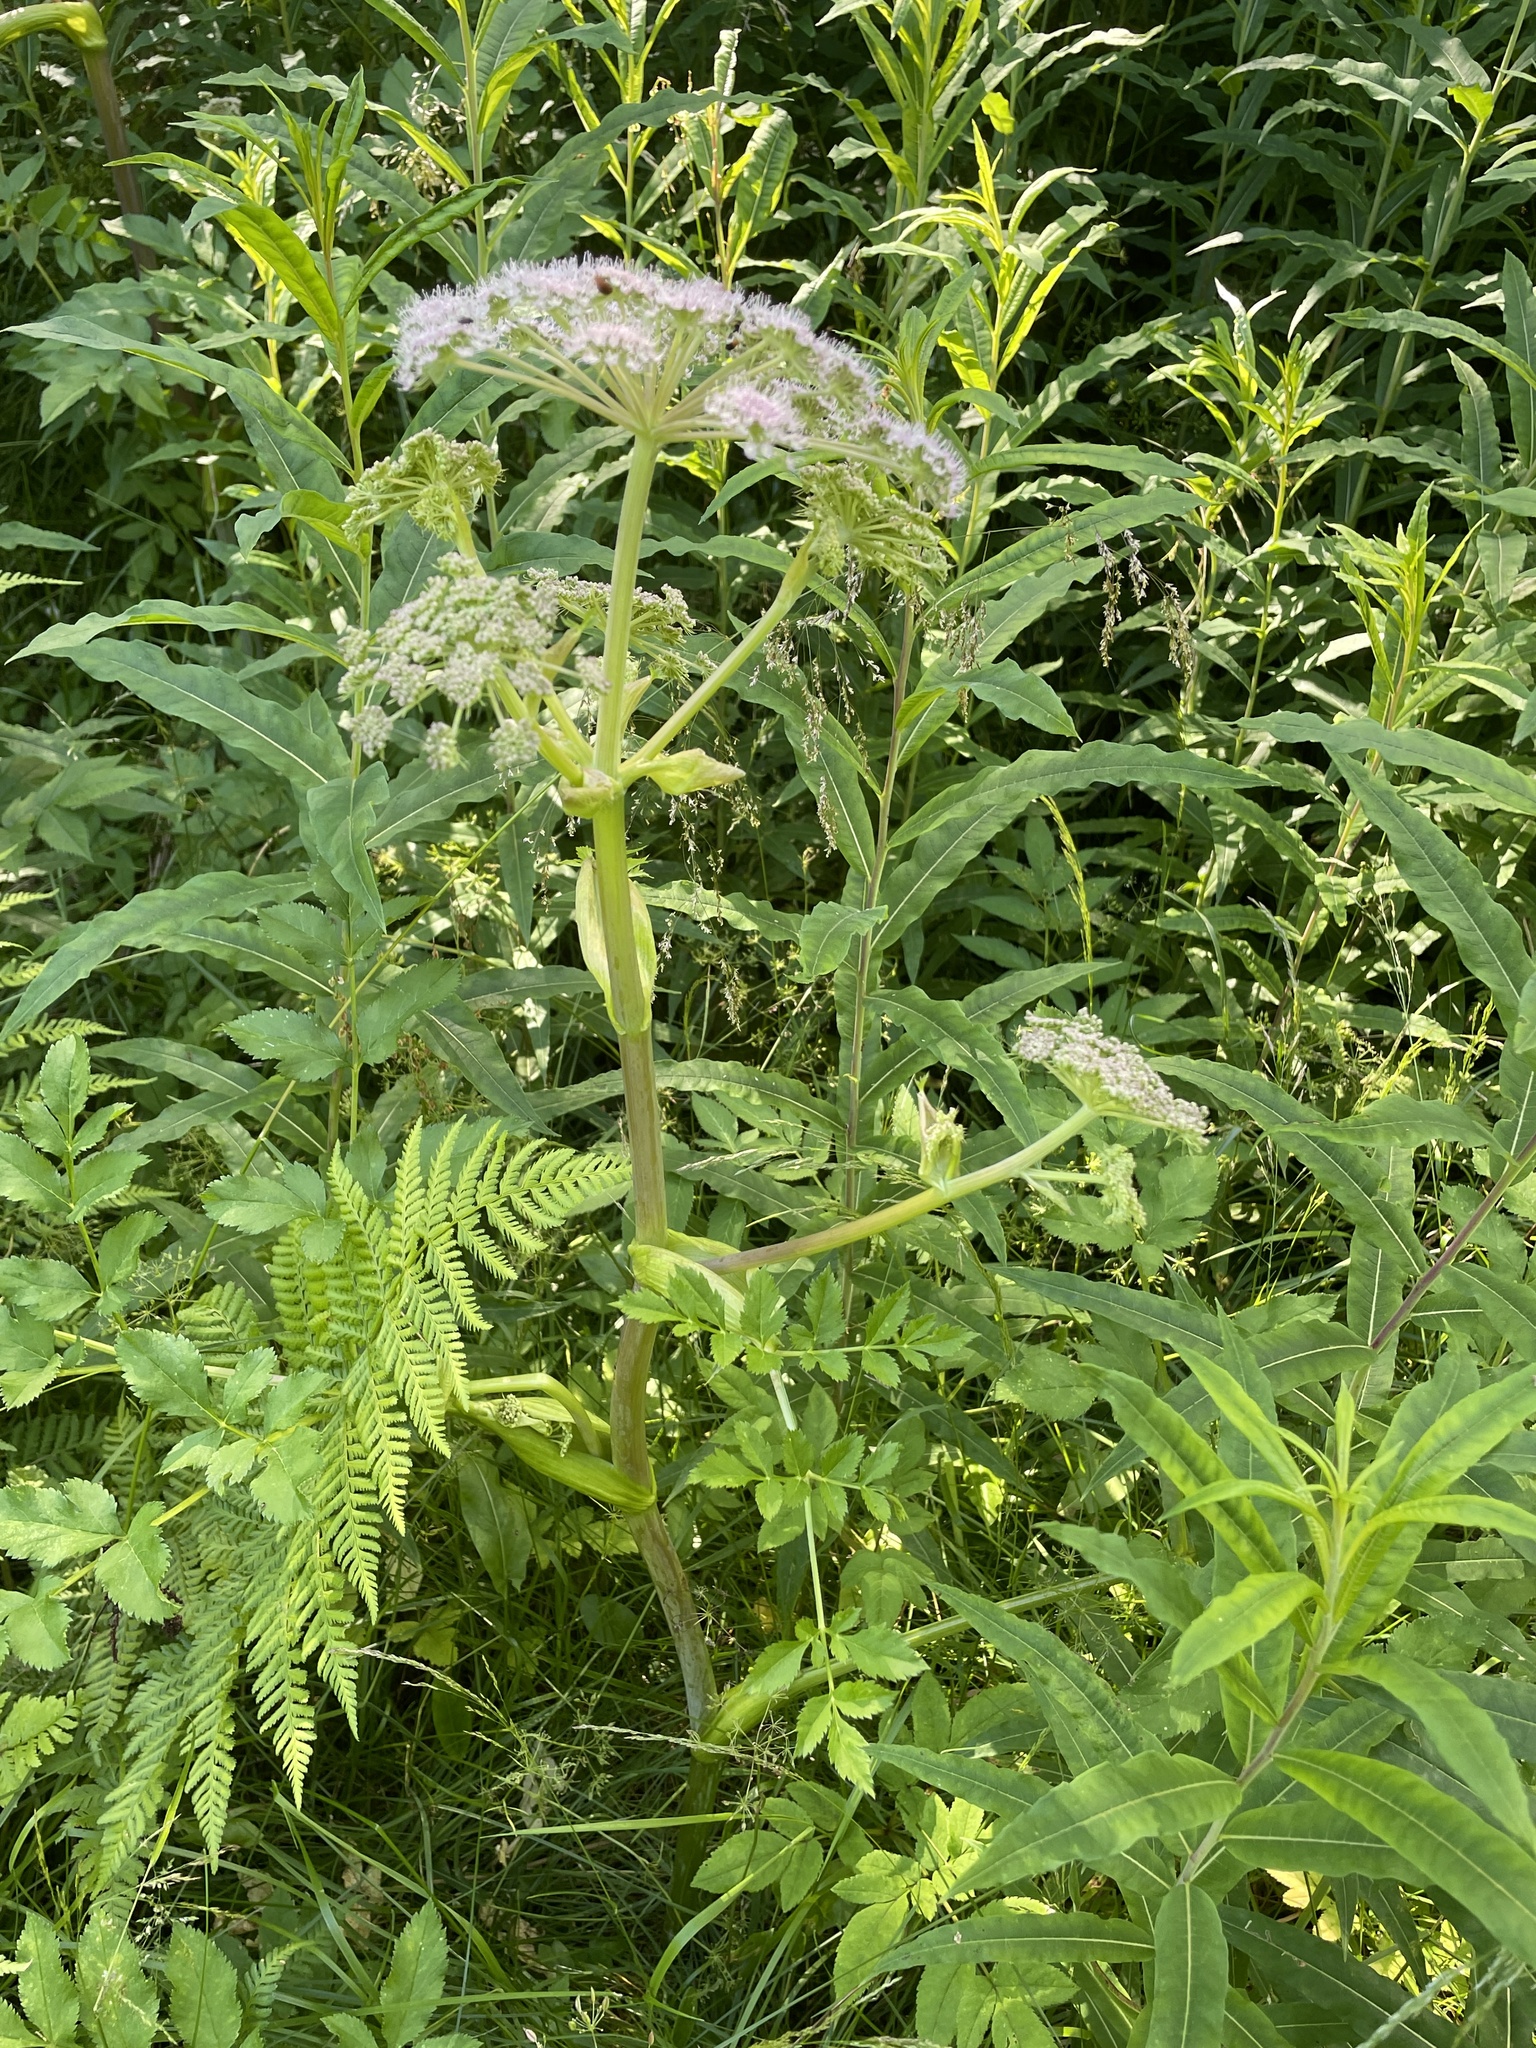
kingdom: Plantae
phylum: Tracheophyta
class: Magnoliopsida
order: Apiales
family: Apiaceae
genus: Angelica
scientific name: Angelica sylvestris
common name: Wild angelica
